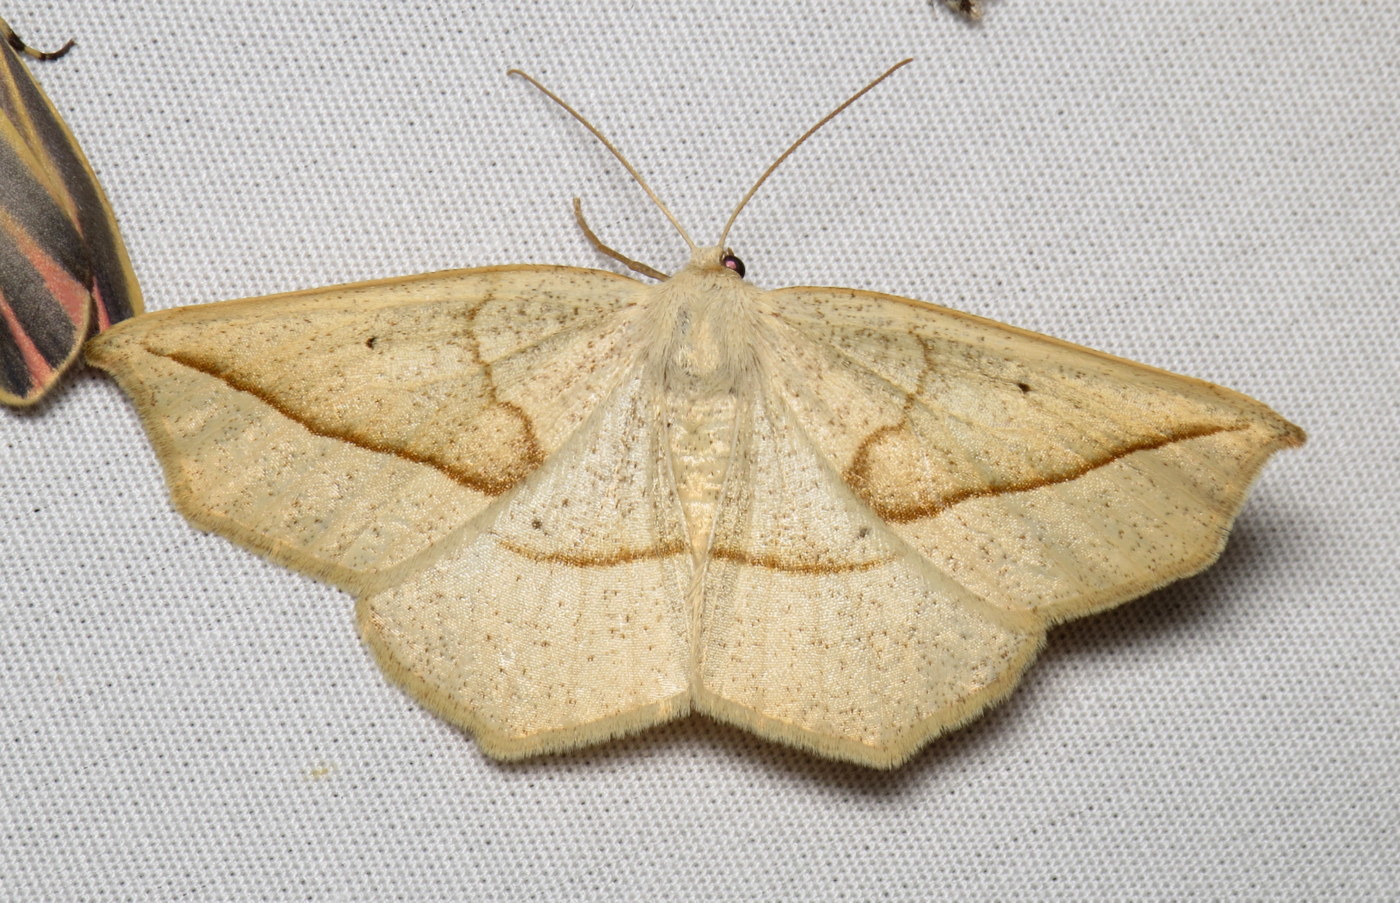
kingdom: Animalia
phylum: Arthropoda
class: Insecta
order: Lepidoptera
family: Geometridae
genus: Eusarca
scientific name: Eusarca confusaria
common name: Confused eusarca
